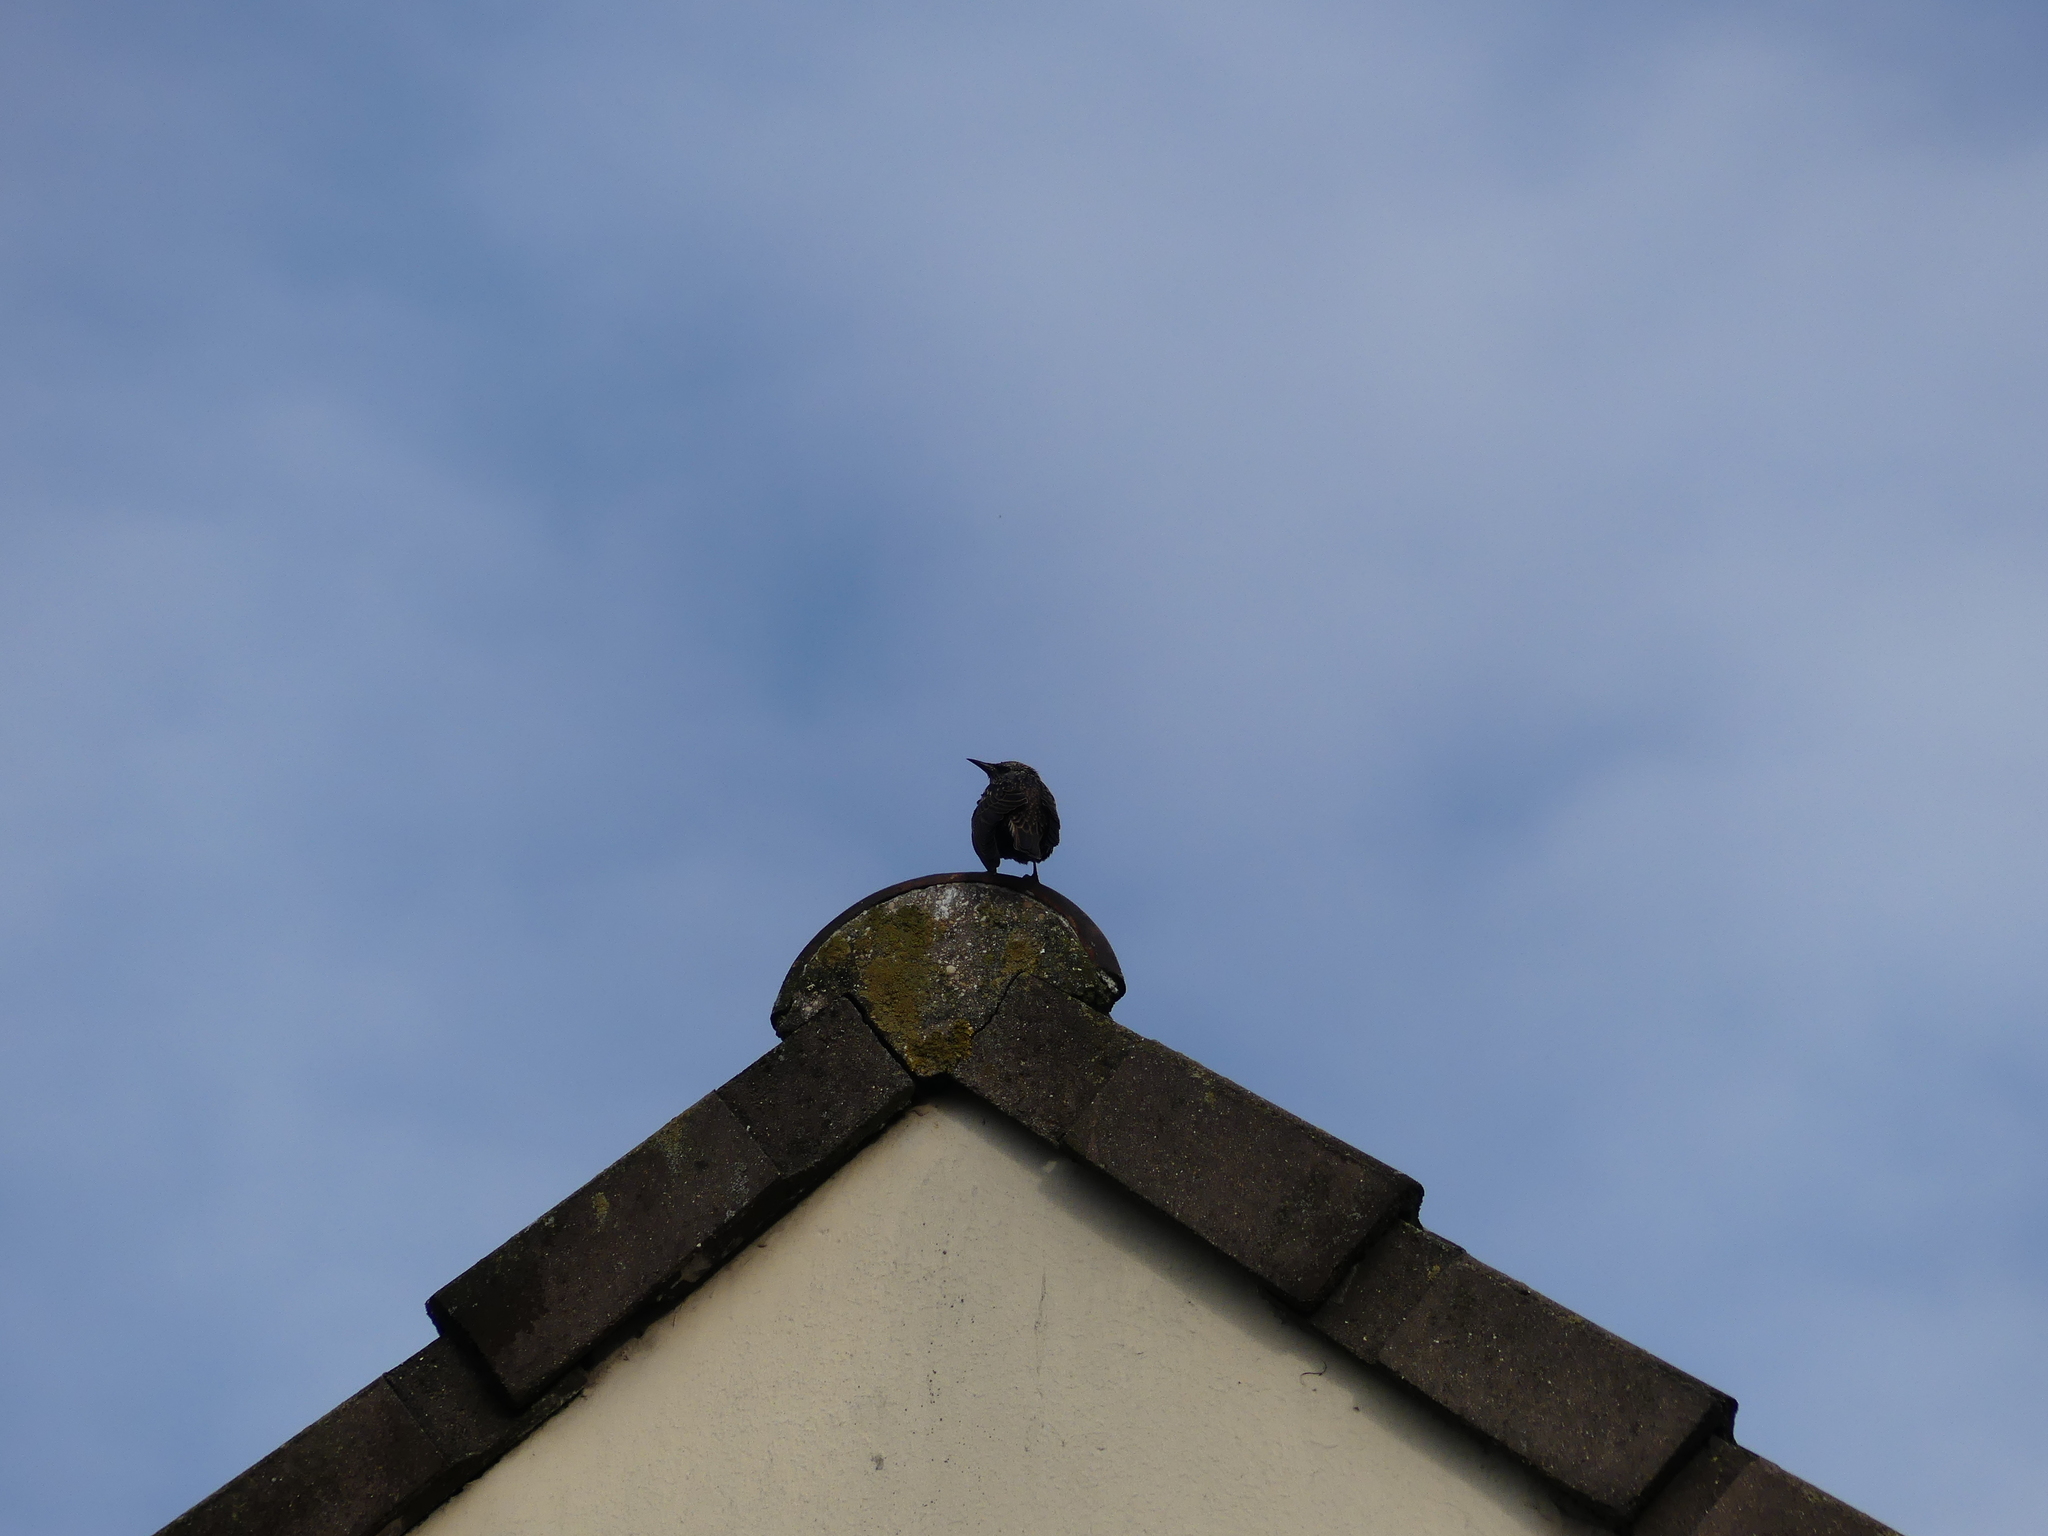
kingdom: Animalia
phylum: Chordata
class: Aves
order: Passeriformes
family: Sturnidae
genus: Sturnus
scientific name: Sturnus vulgaris
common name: Common starling
